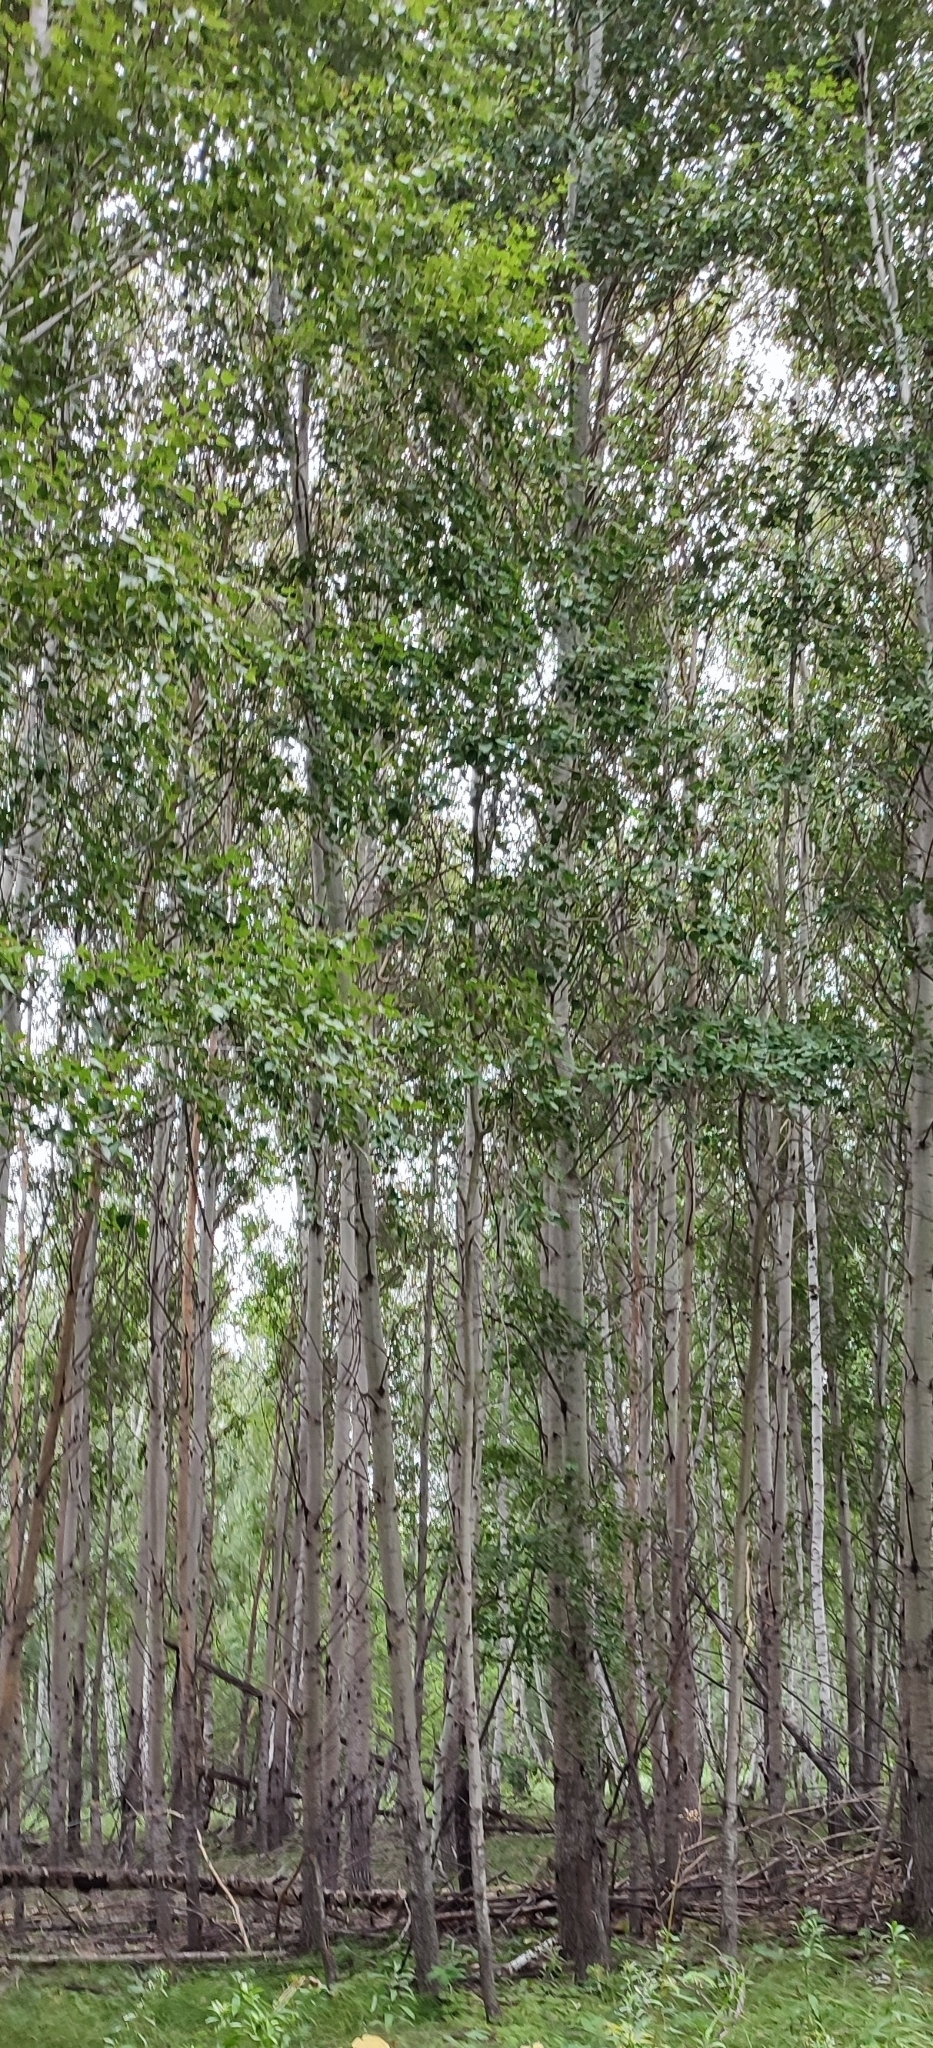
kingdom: Plantae
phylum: Tracheophyta
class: Magnoliopsida
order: Malpighiales
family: Salicaceae
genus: Populus
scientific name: Populus tremula
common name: European aspen
